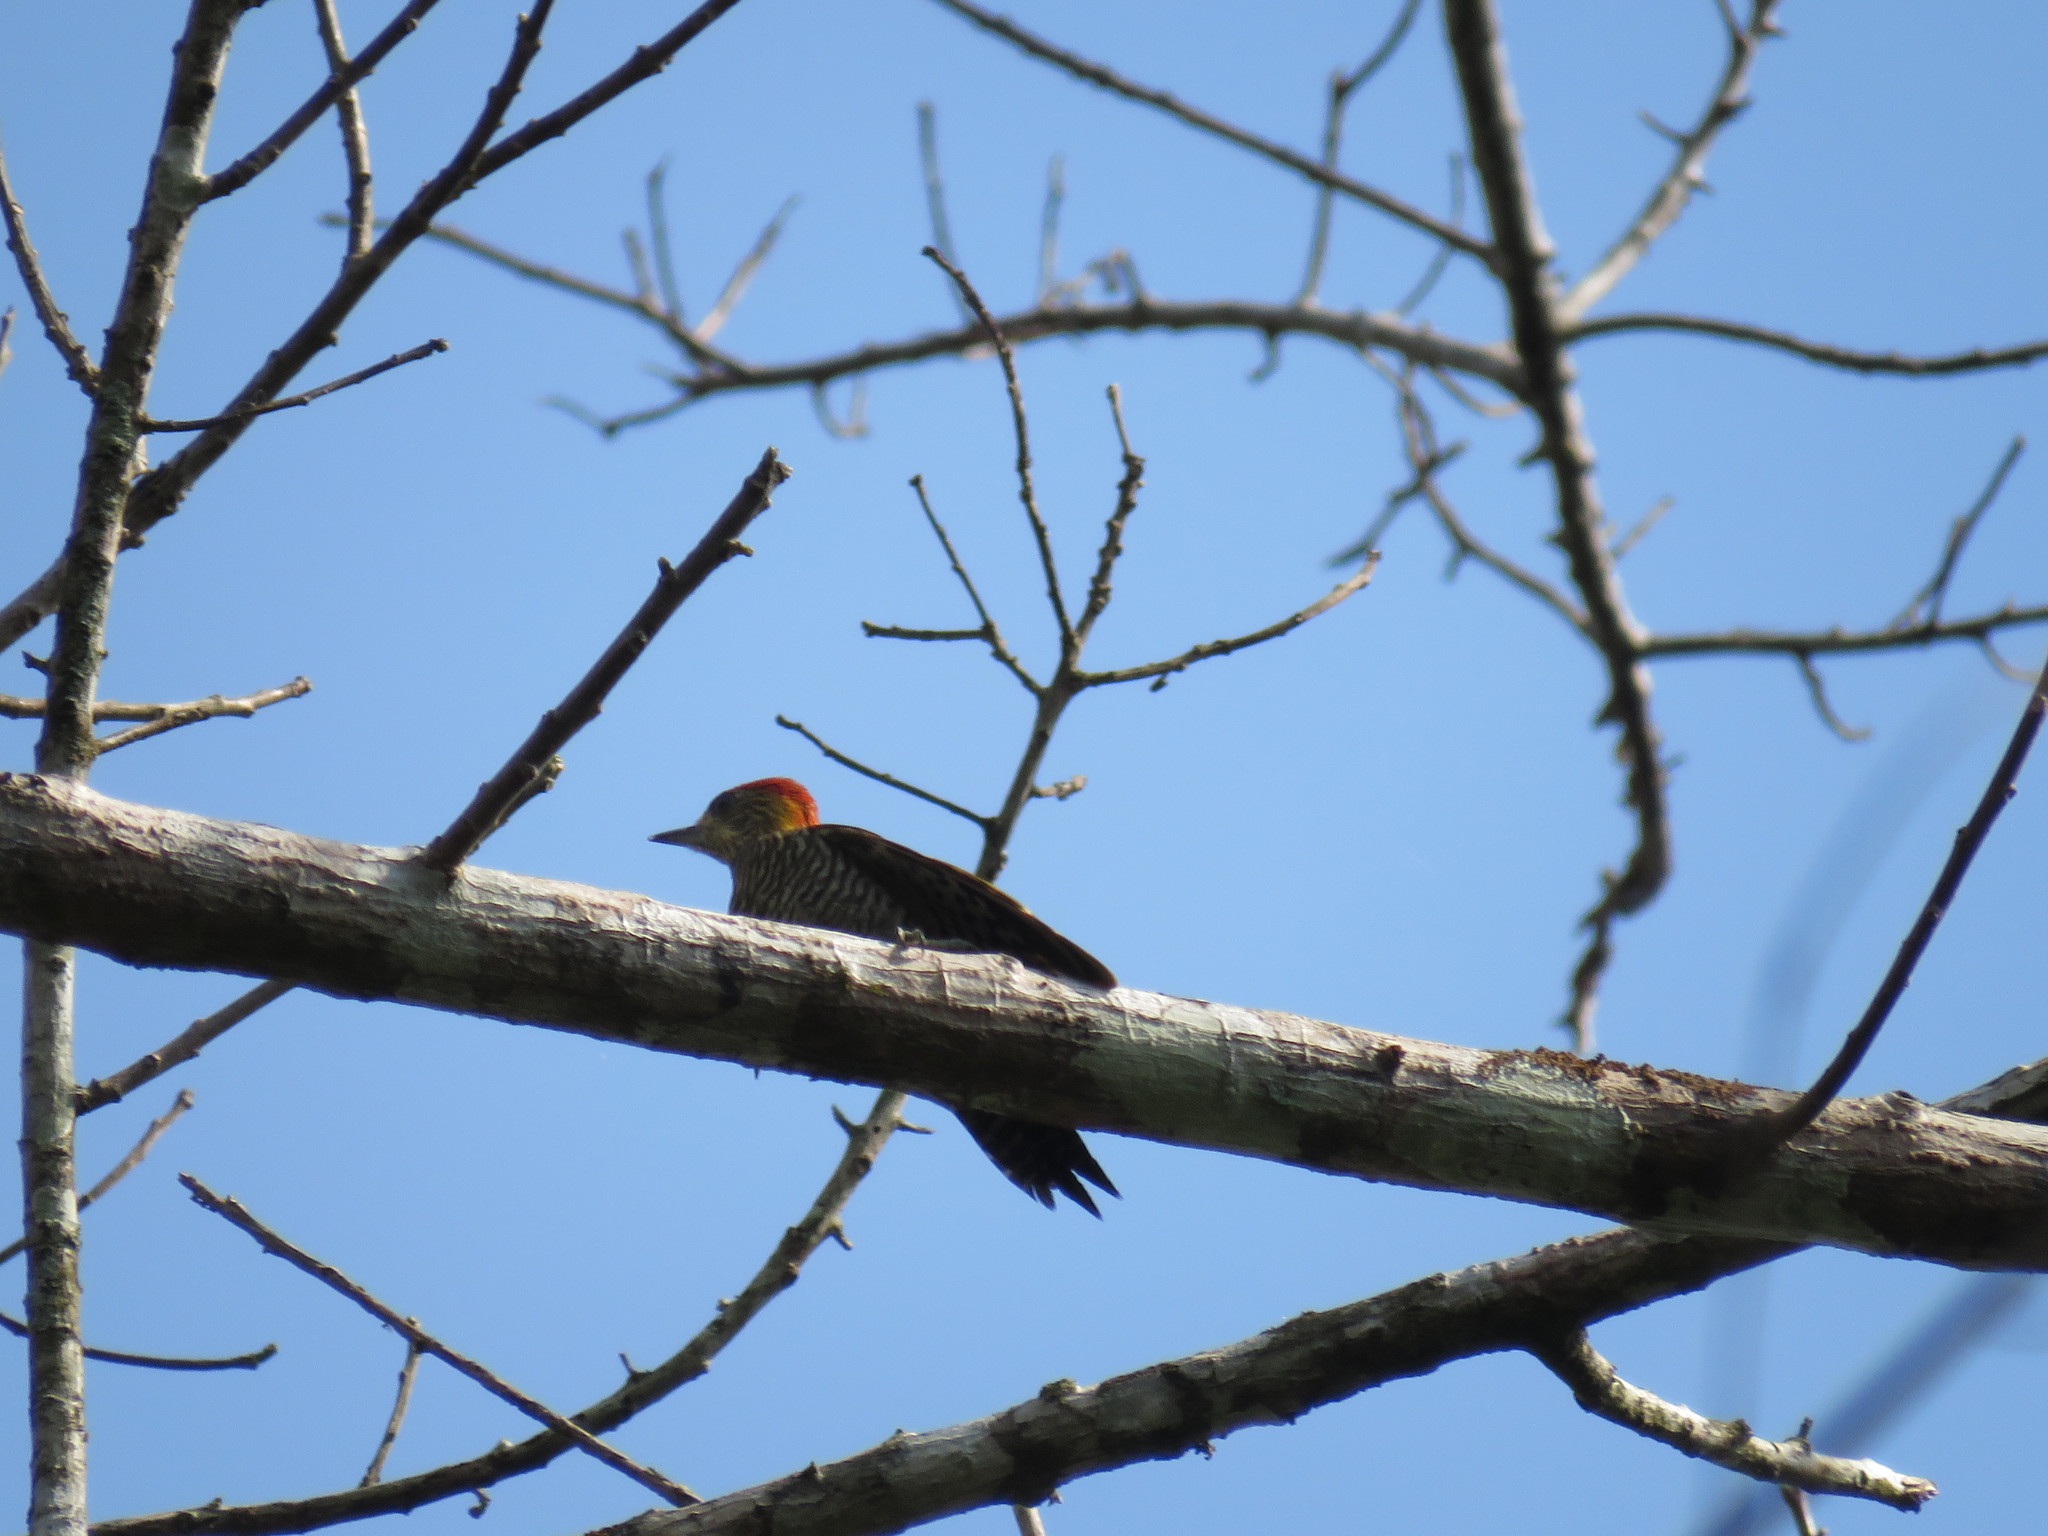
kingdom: Animalia
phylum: Chordata
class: Aves
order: Piciformes
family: Picidae
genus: Veniliornis
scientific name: Veniliornis affinis
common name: Red-stained woodpecker
